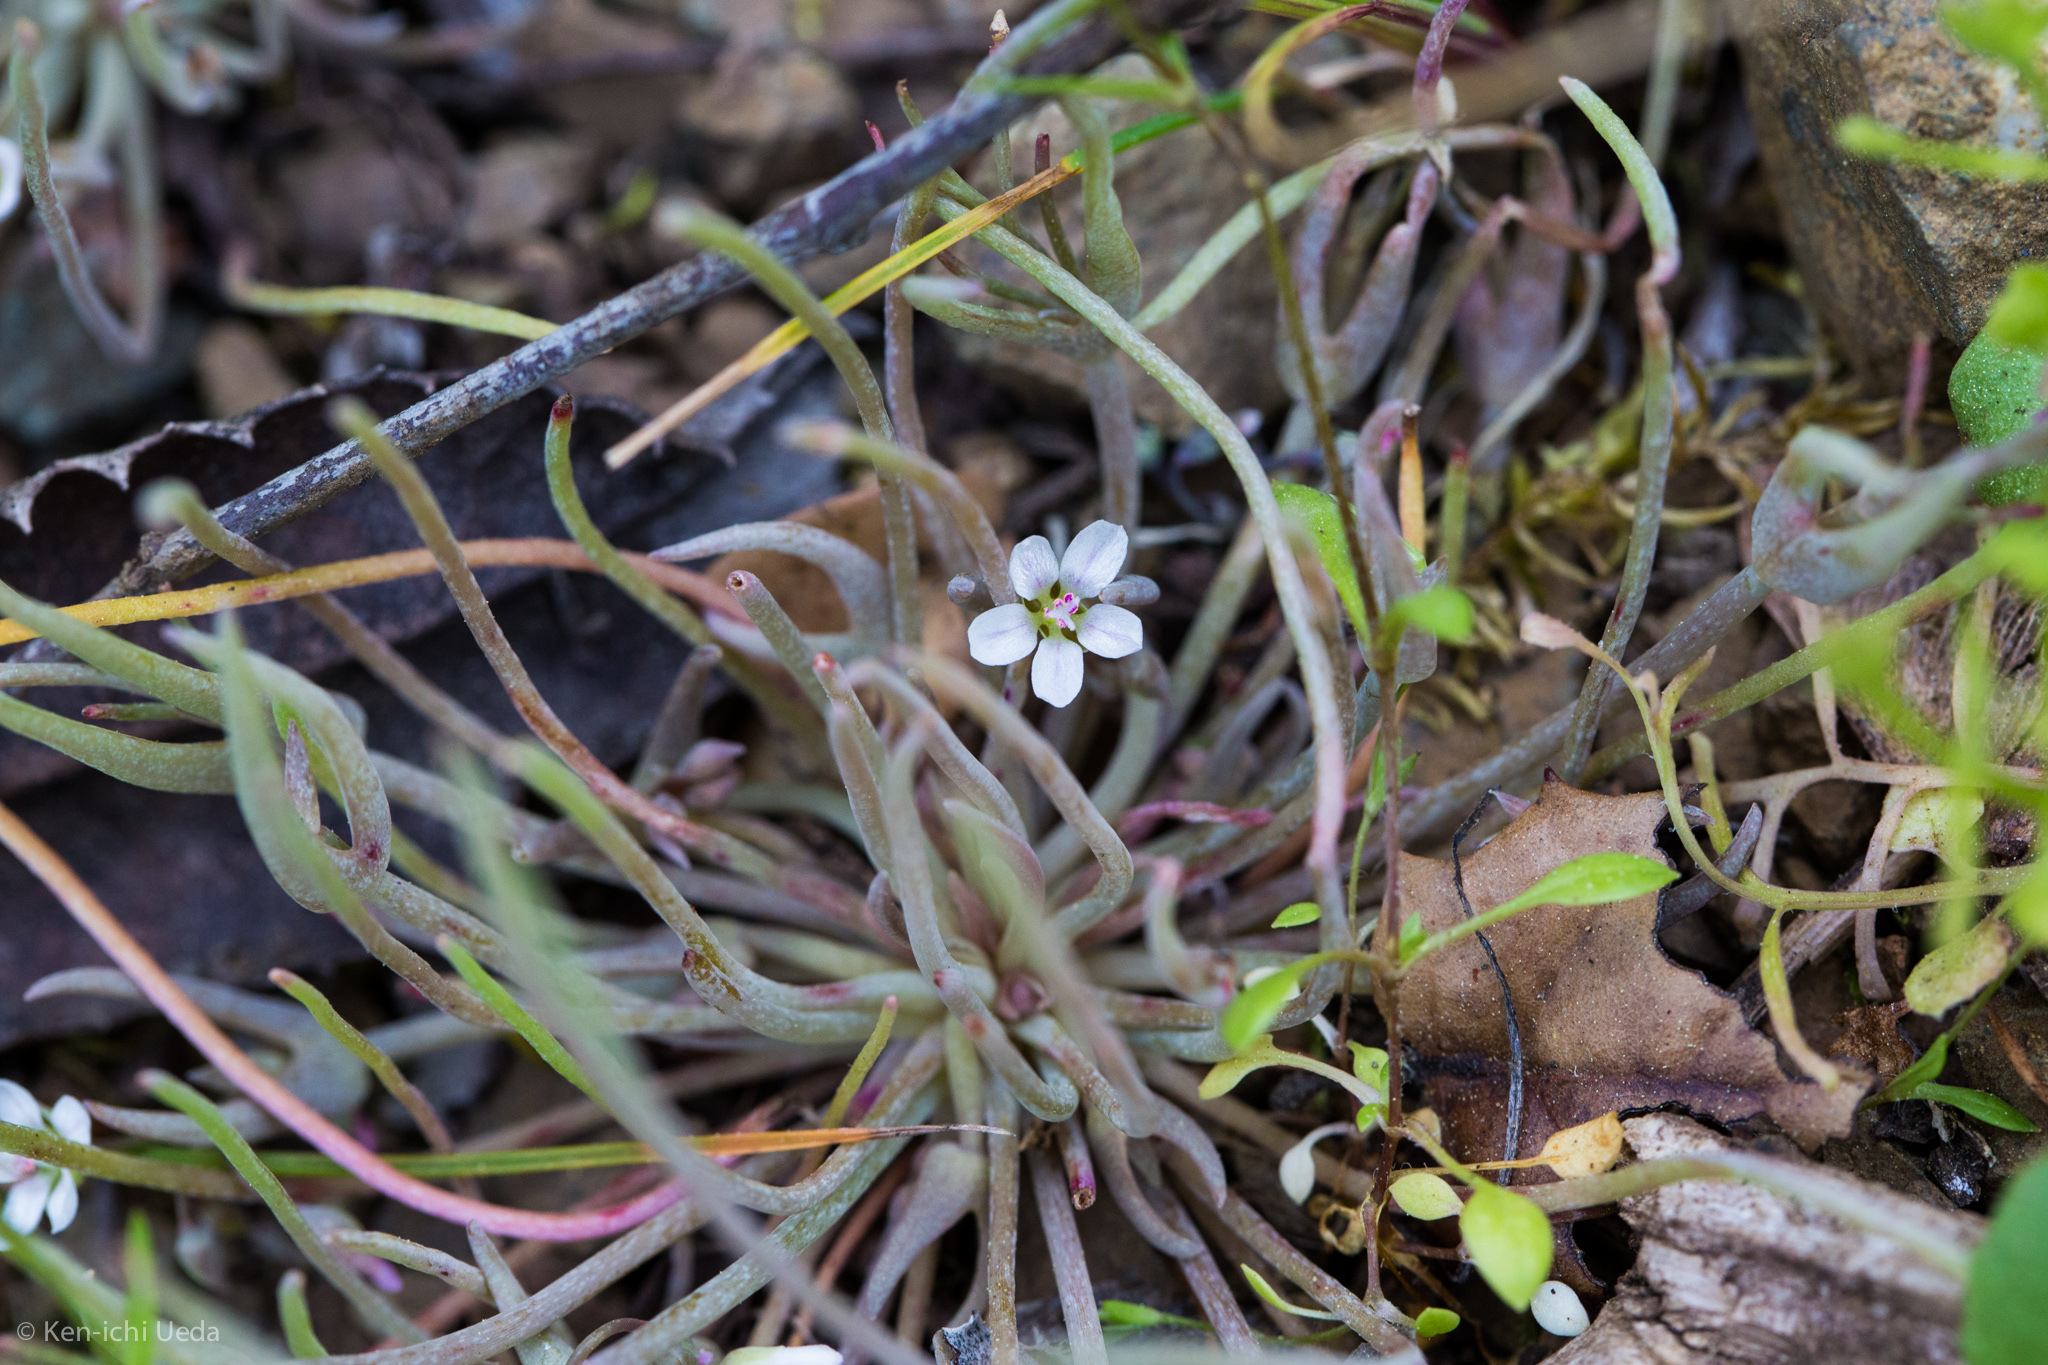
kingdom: Plantae
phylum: Tracheophyta
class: Magnoliopsida
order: Caryophyllales
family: Montiaceae
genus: Claytonia
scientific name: Claytonia exigua
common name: Pale spring beauty
